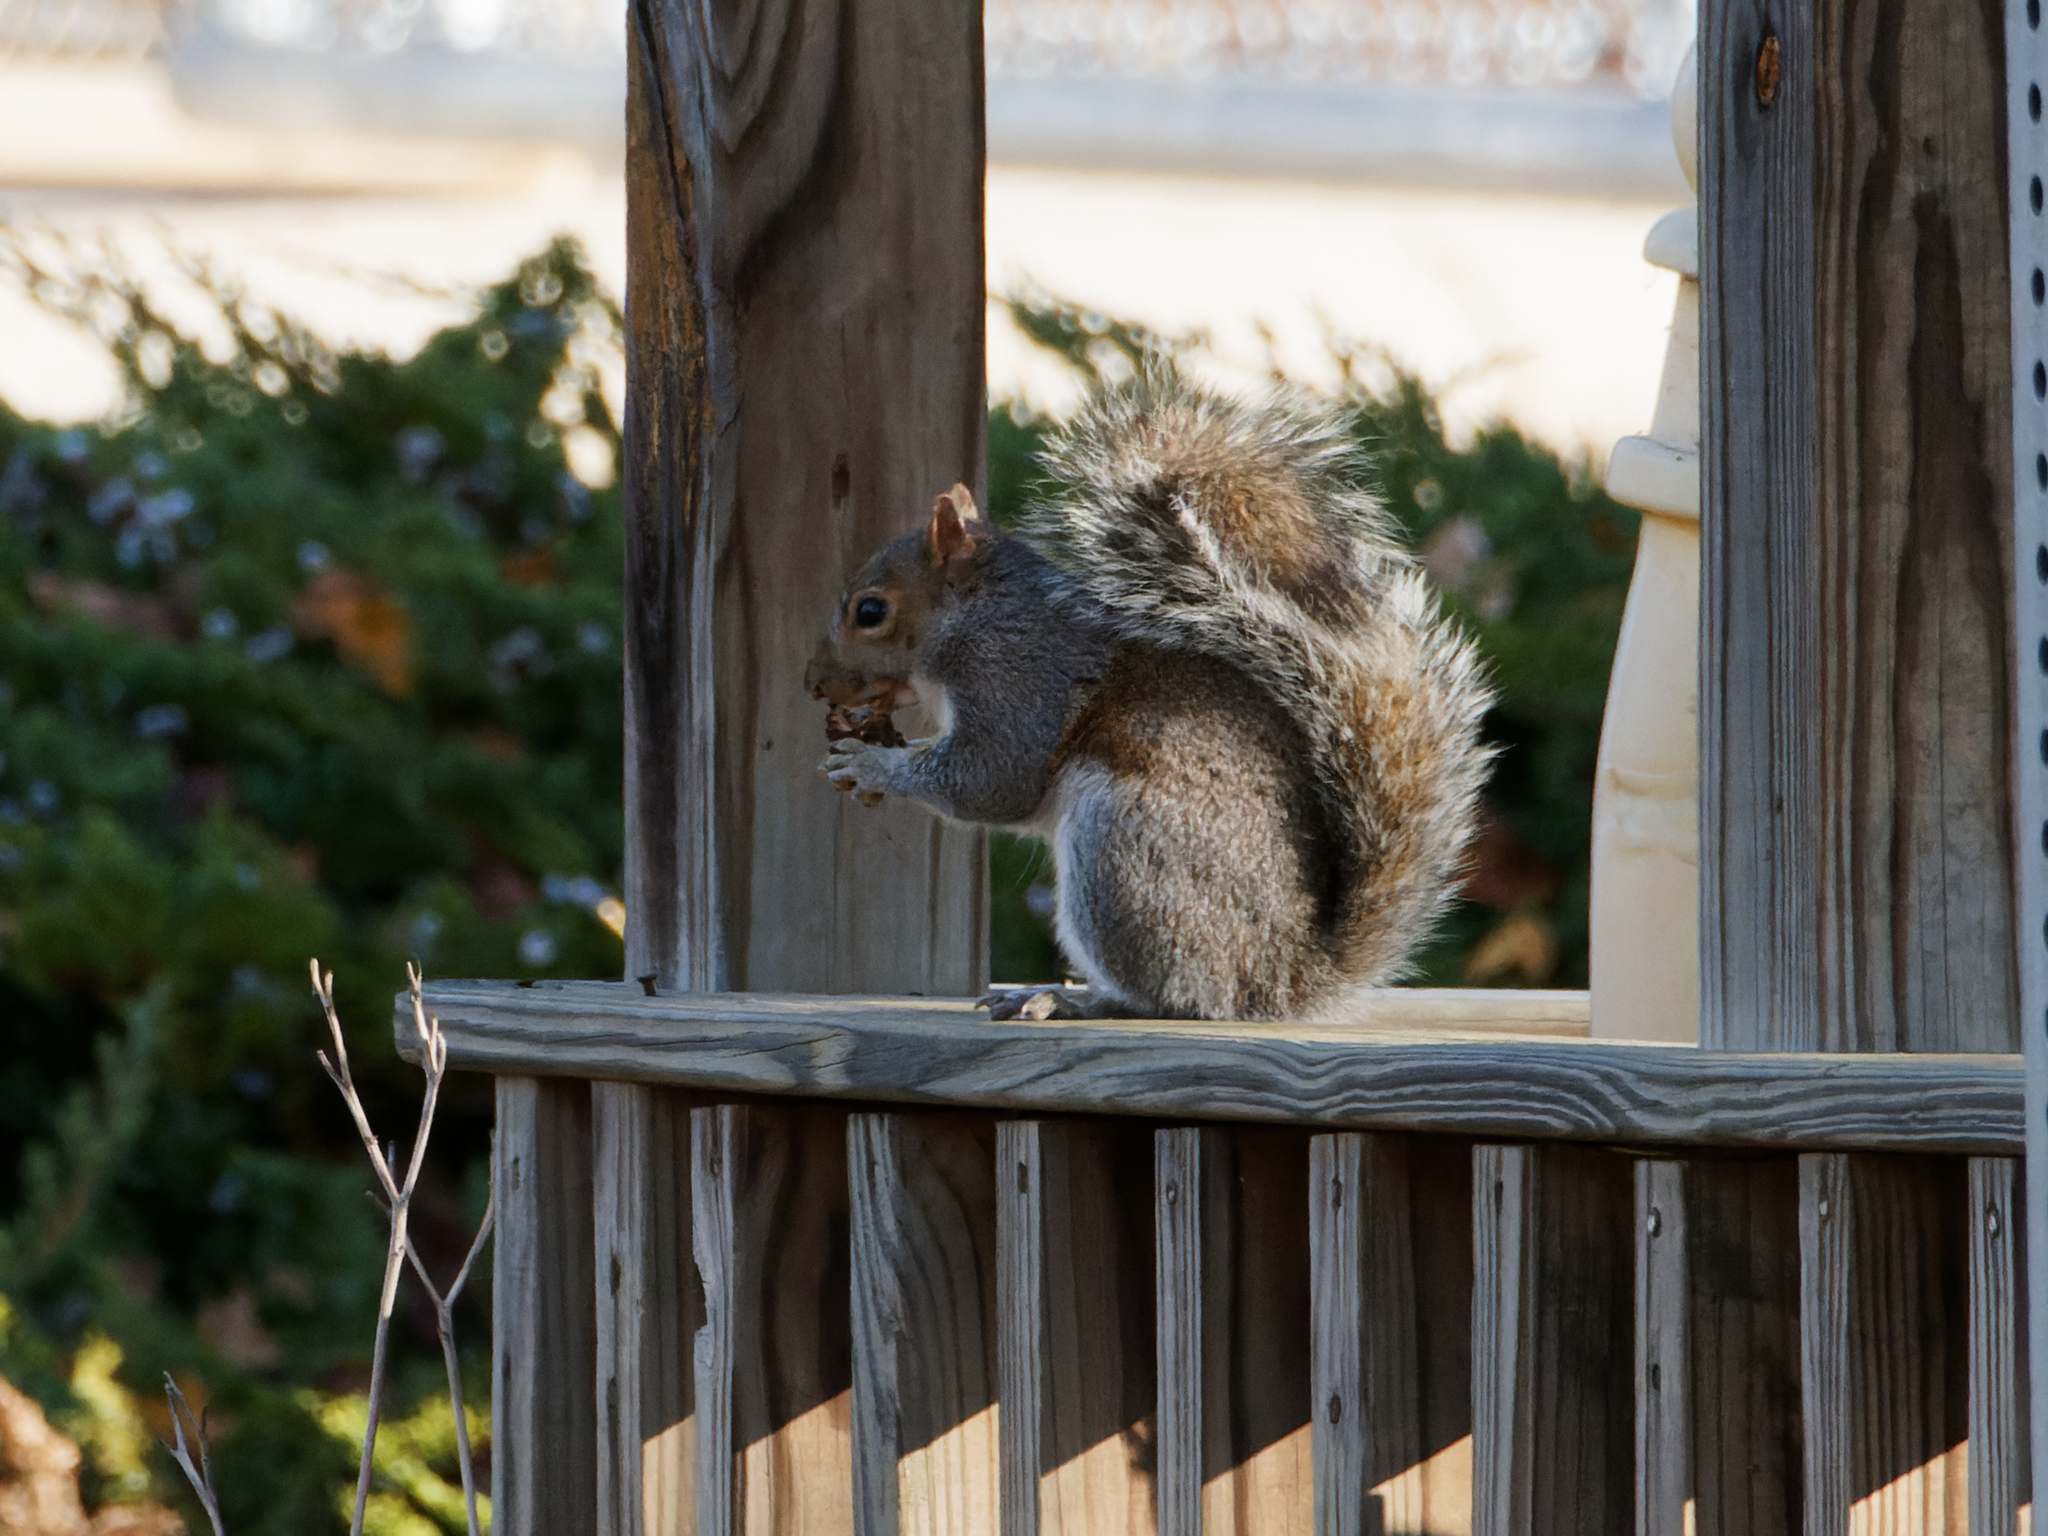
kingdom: Animalia
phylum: Chordata
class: Mammalia
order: Rodentia
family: Sciuridae
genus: Sciurus
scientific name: Sciurus carolinensis
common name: Eastern gray squirrel
